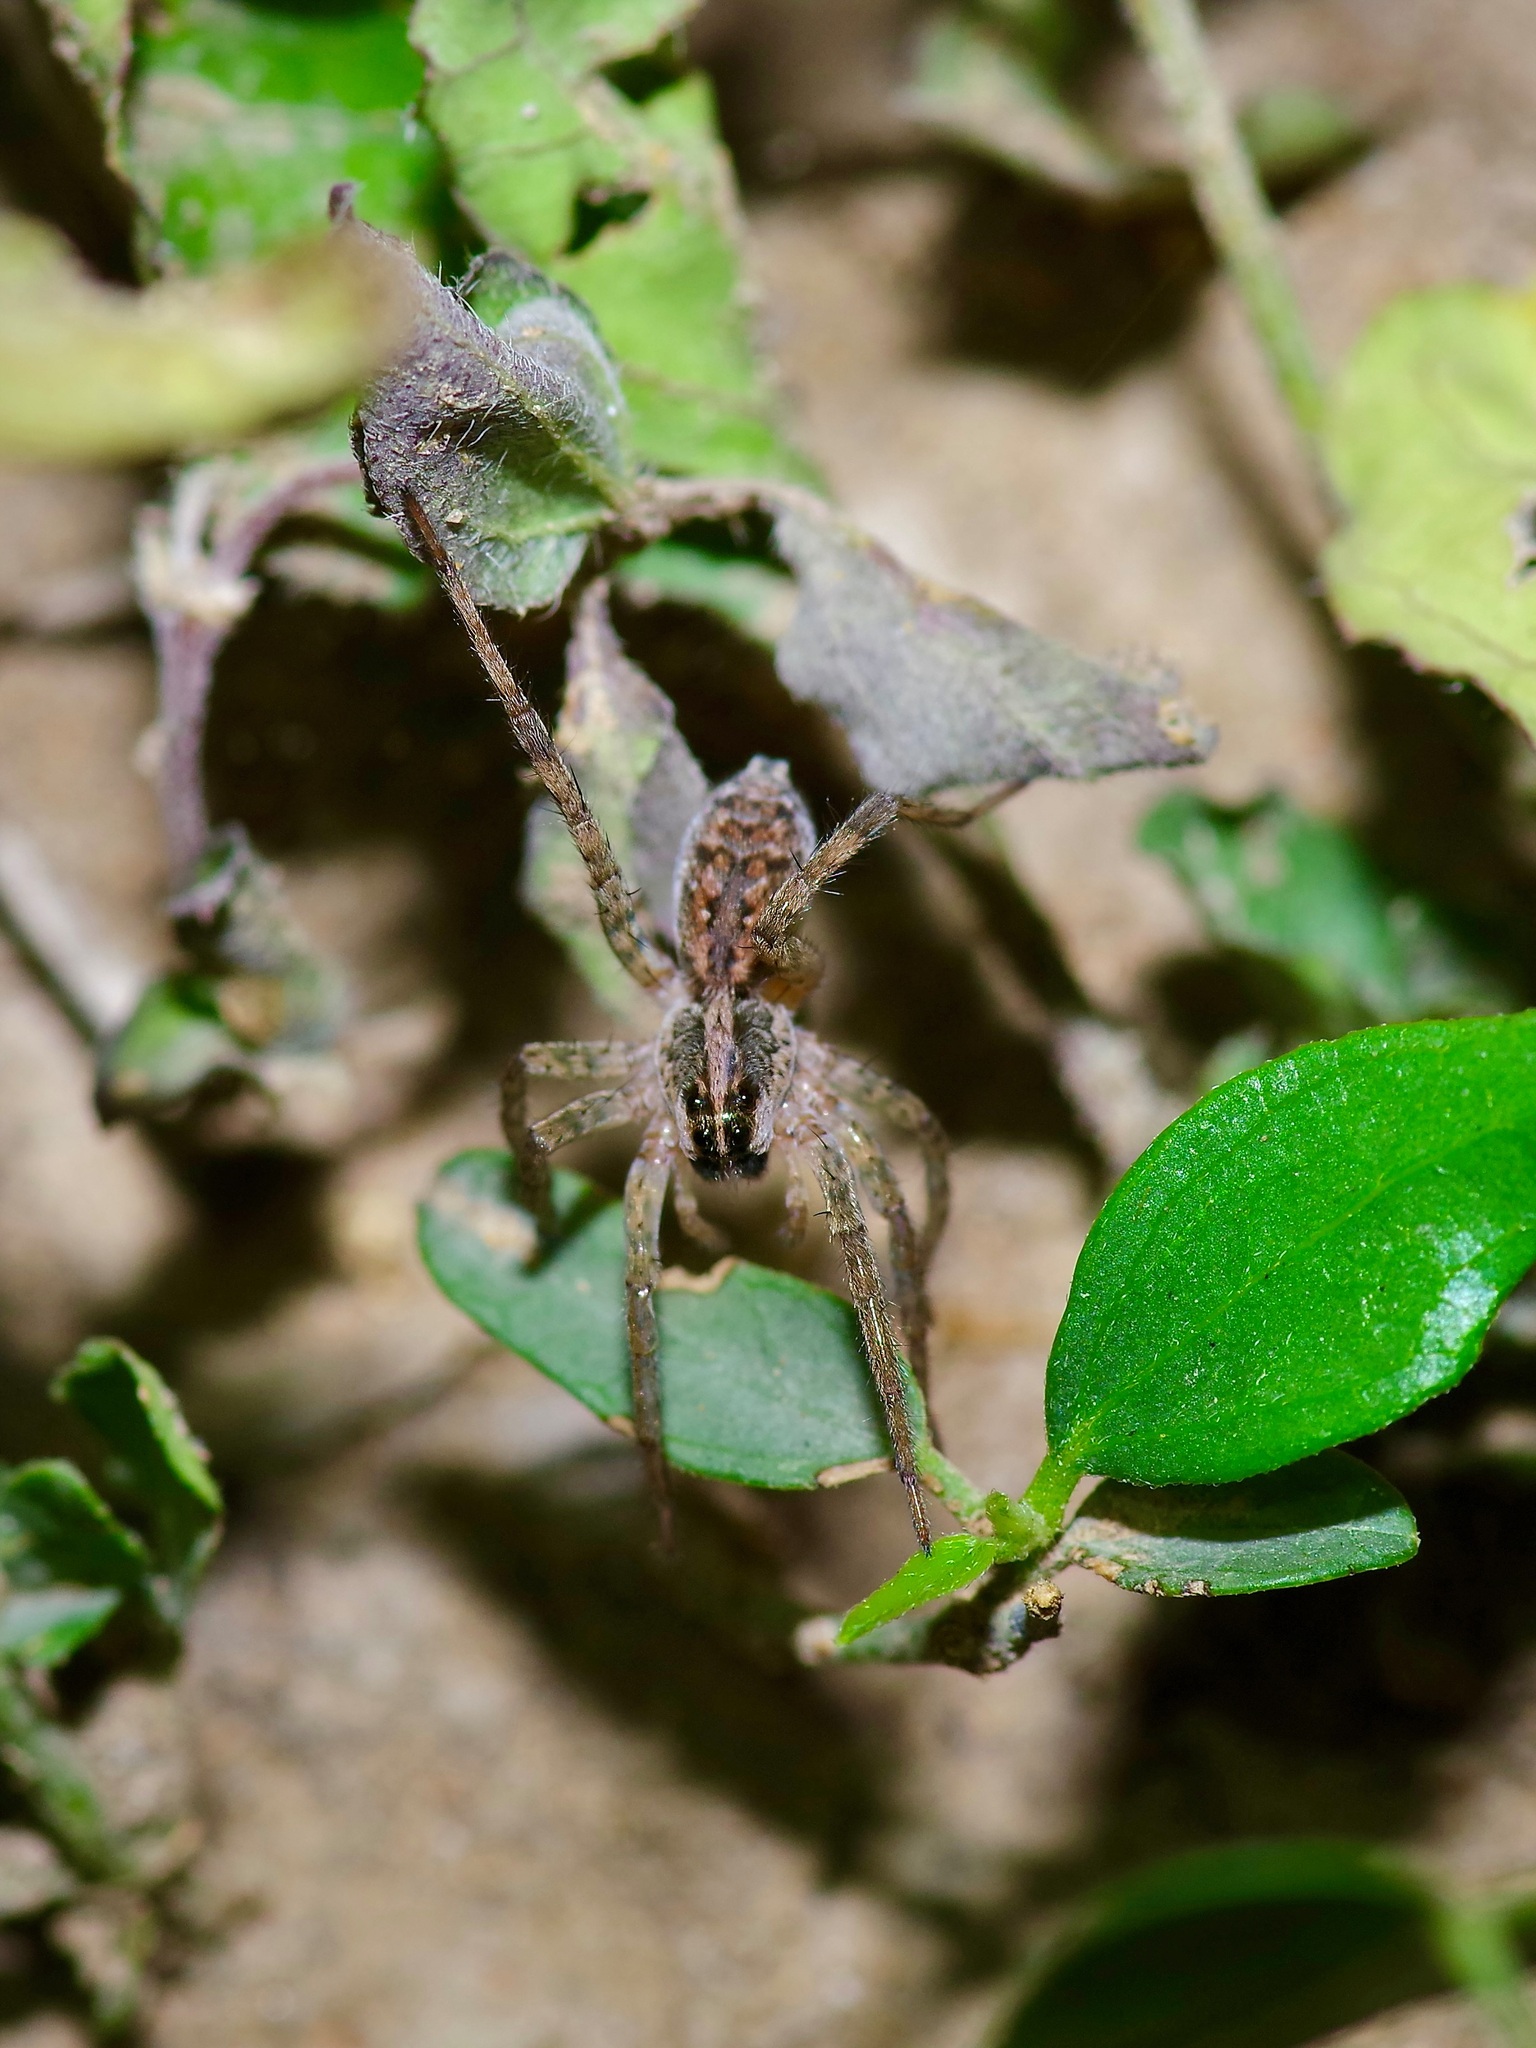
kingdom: Animalia
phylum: Arthropoda
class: Arachnida
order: Araneae
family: Lycosidae
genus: Hogna
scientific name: Hogna antelucana
